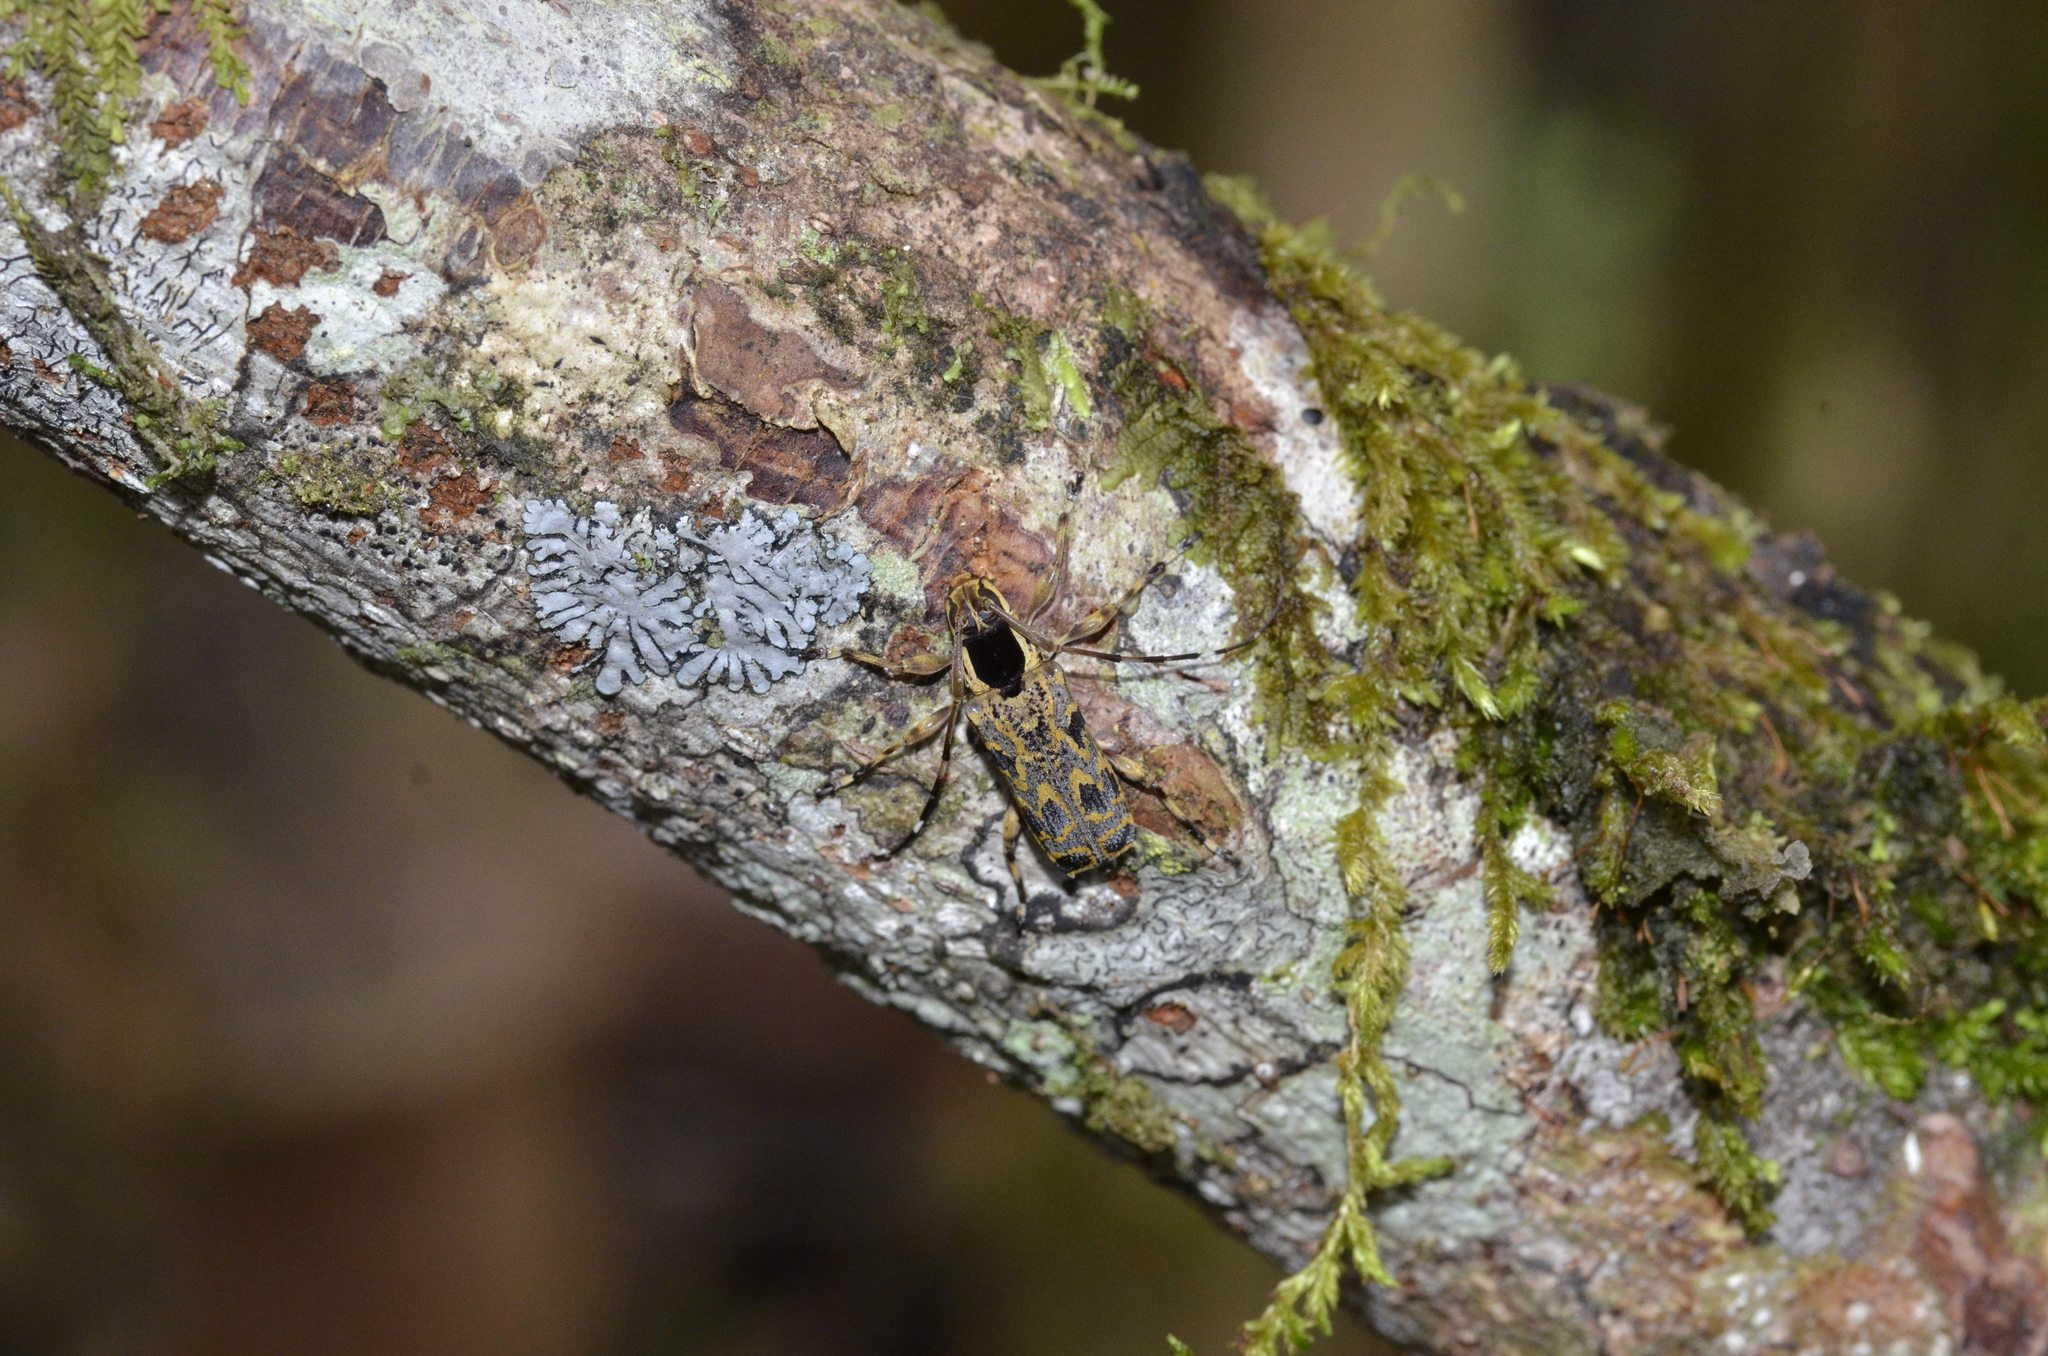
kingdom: Animalia
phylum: Arthropoda
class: Insecta
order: Coleoptera
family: Cerambycidae
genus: Colobothea
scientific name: Colobothea macularis
